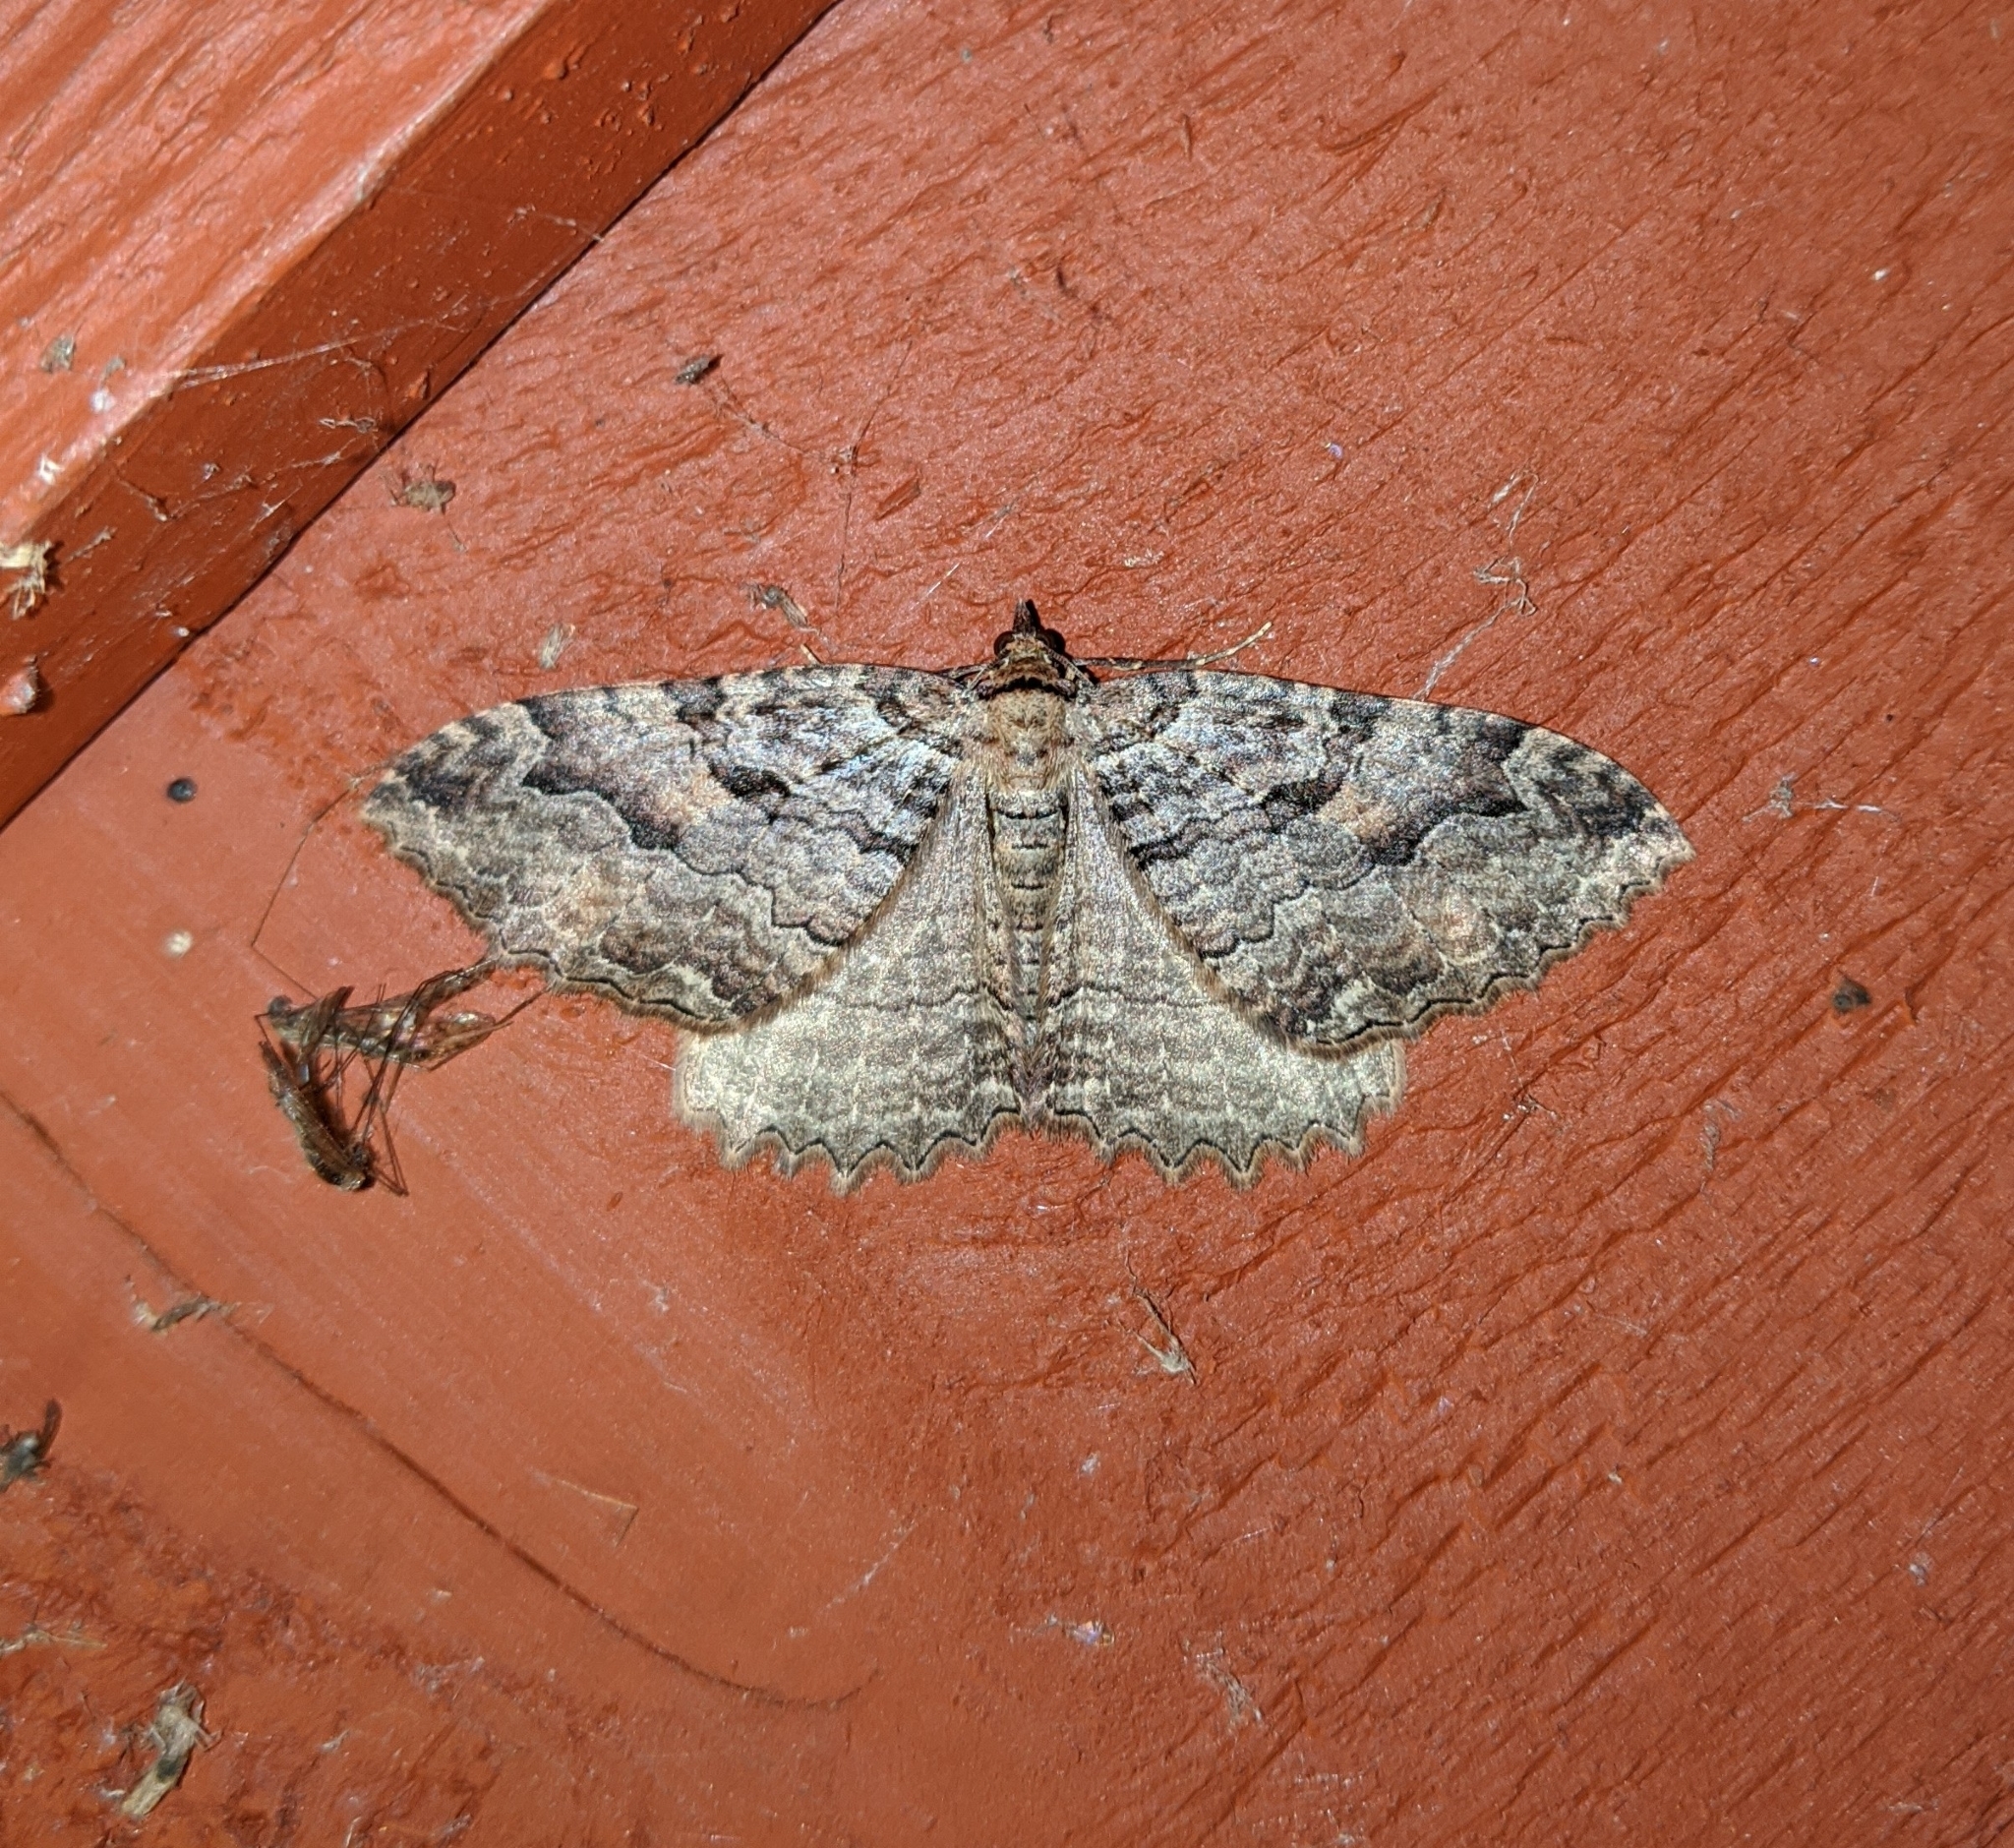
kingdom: Animalia
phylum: Arthropoda
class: Insecta
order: Lepidoptera
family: Geometridae
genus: Triphosa
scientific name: Triphosa haesitata
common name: Tissue moth
